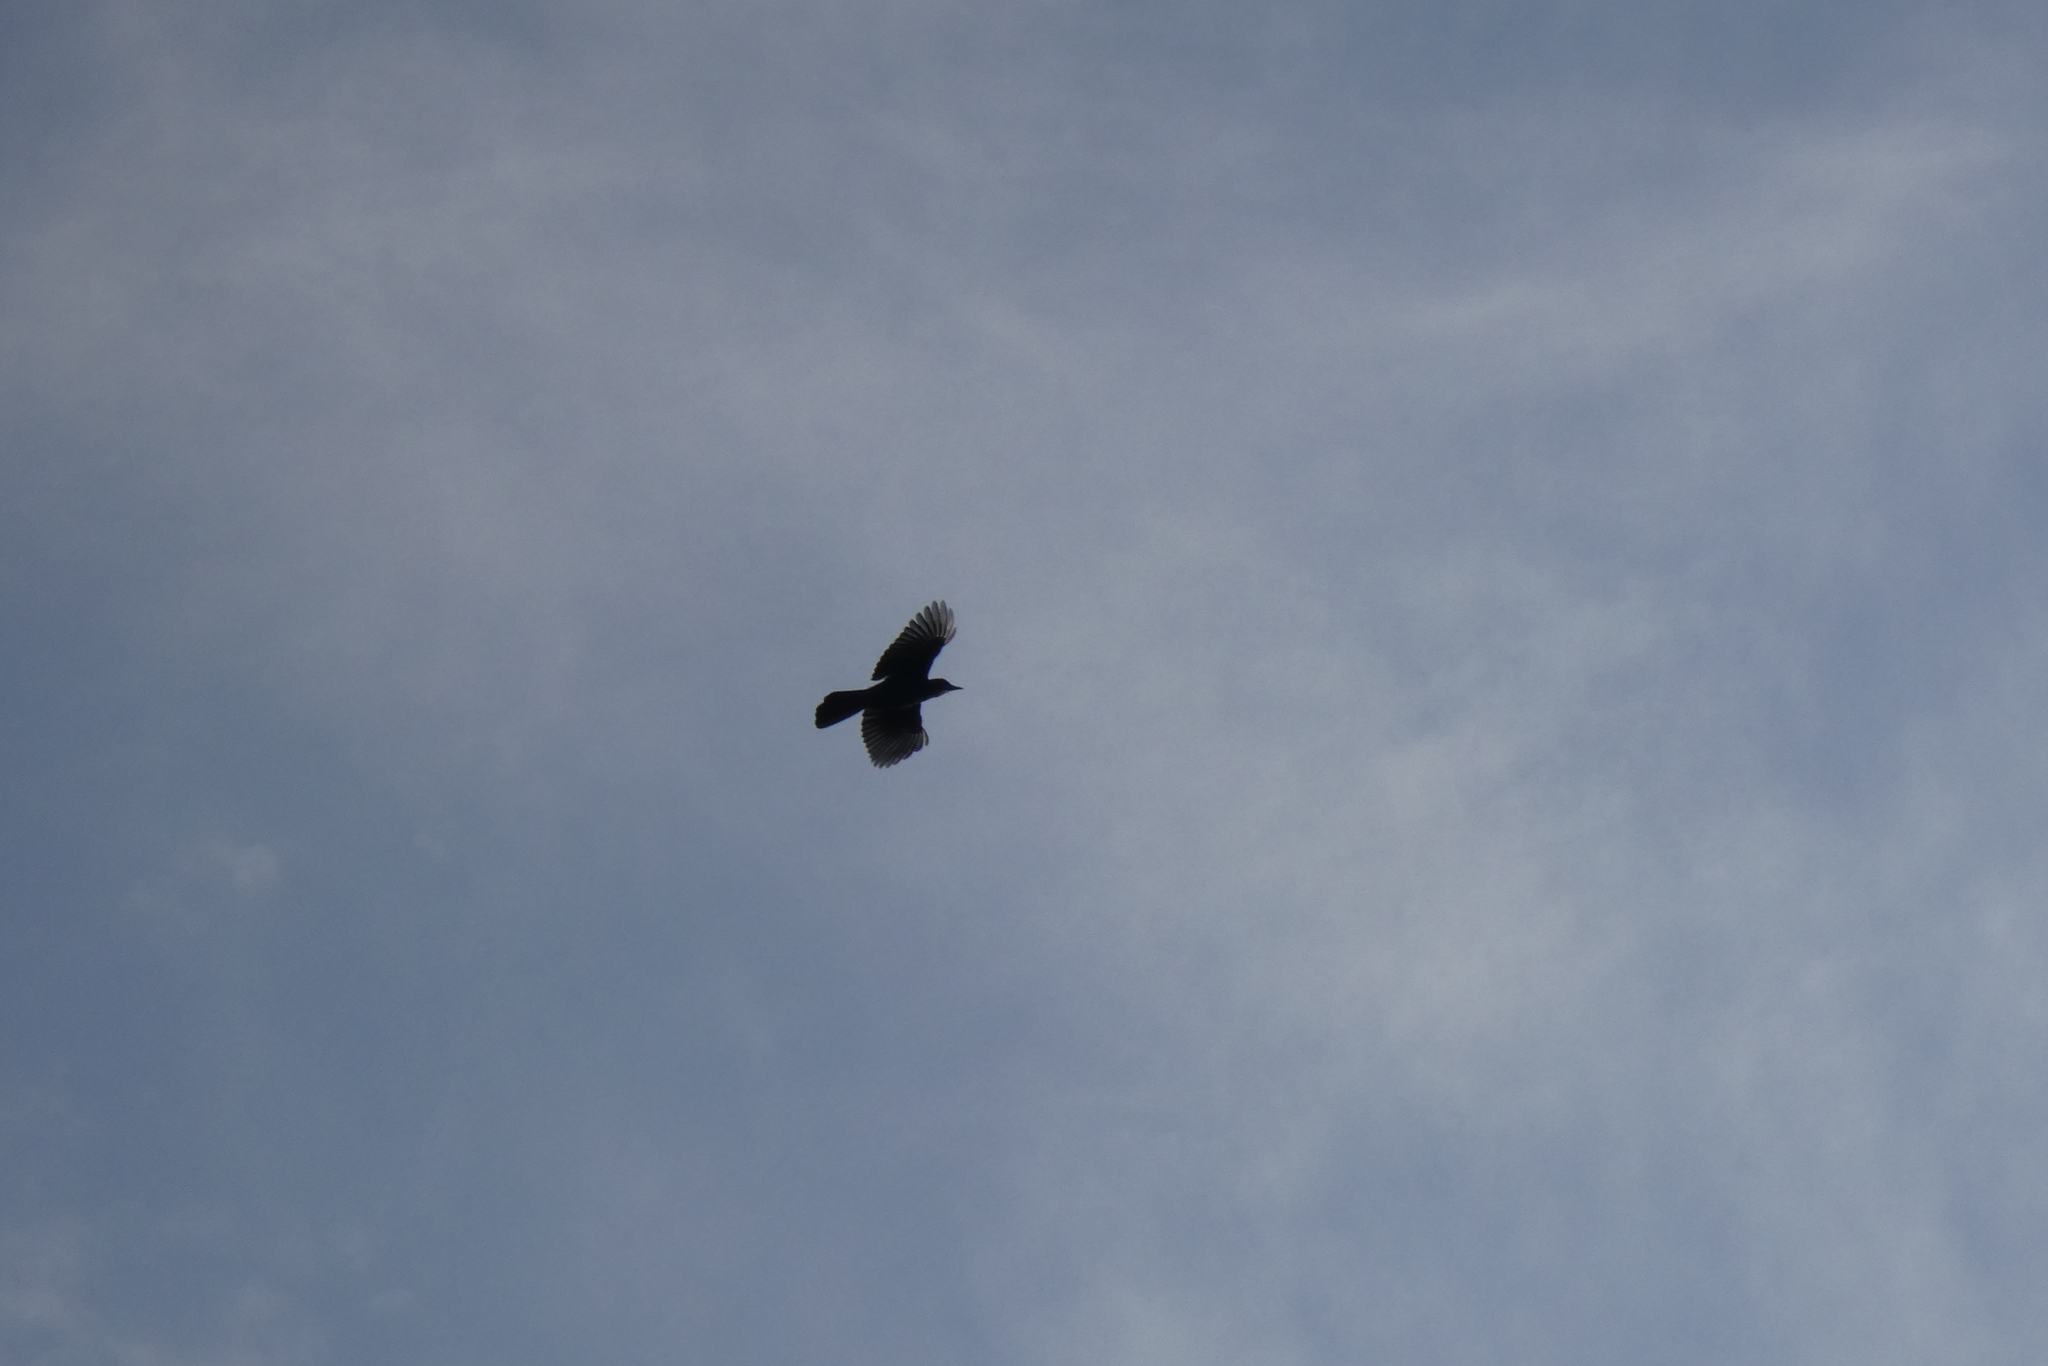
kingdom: Animalia
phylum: Chordata
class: Aves
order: Passeriformes
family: Corvidae
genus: Cyanocitta
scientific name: Cyanocitta stelleri
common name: Steller's jay
